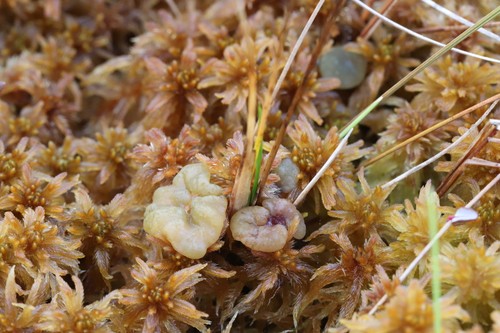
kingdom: Fungi
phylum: Ascomycota
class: Leotiomycetes
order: Helotiales
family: Gelatinodiscaceae
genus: Ascocoryne
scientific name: Ascocoryne turficola
